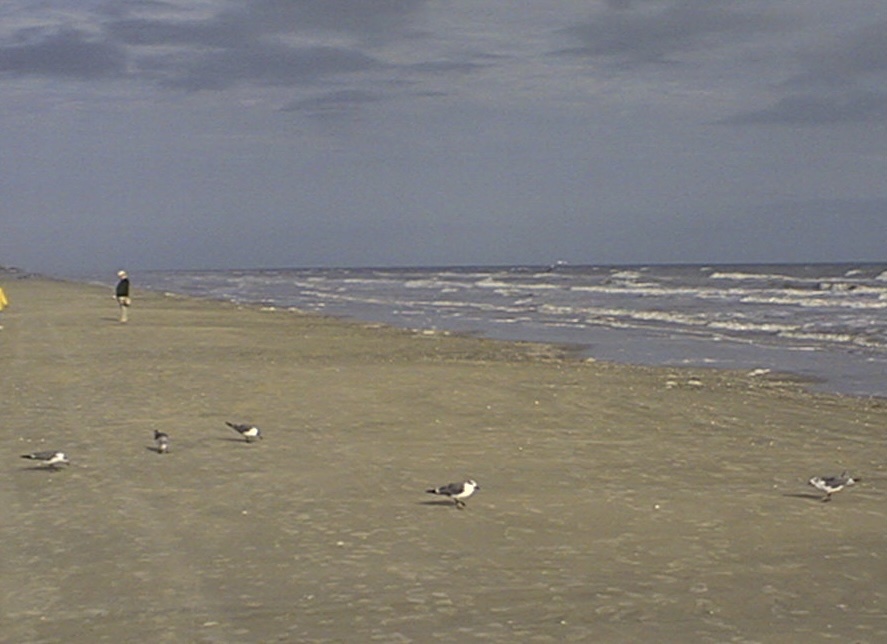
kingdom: Animalia
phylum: Chordata
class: Aves
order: Charadriiformes
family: Laridae
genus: Leucophaeus
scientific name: Leucophaeus atricilla
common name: Laughing gull
